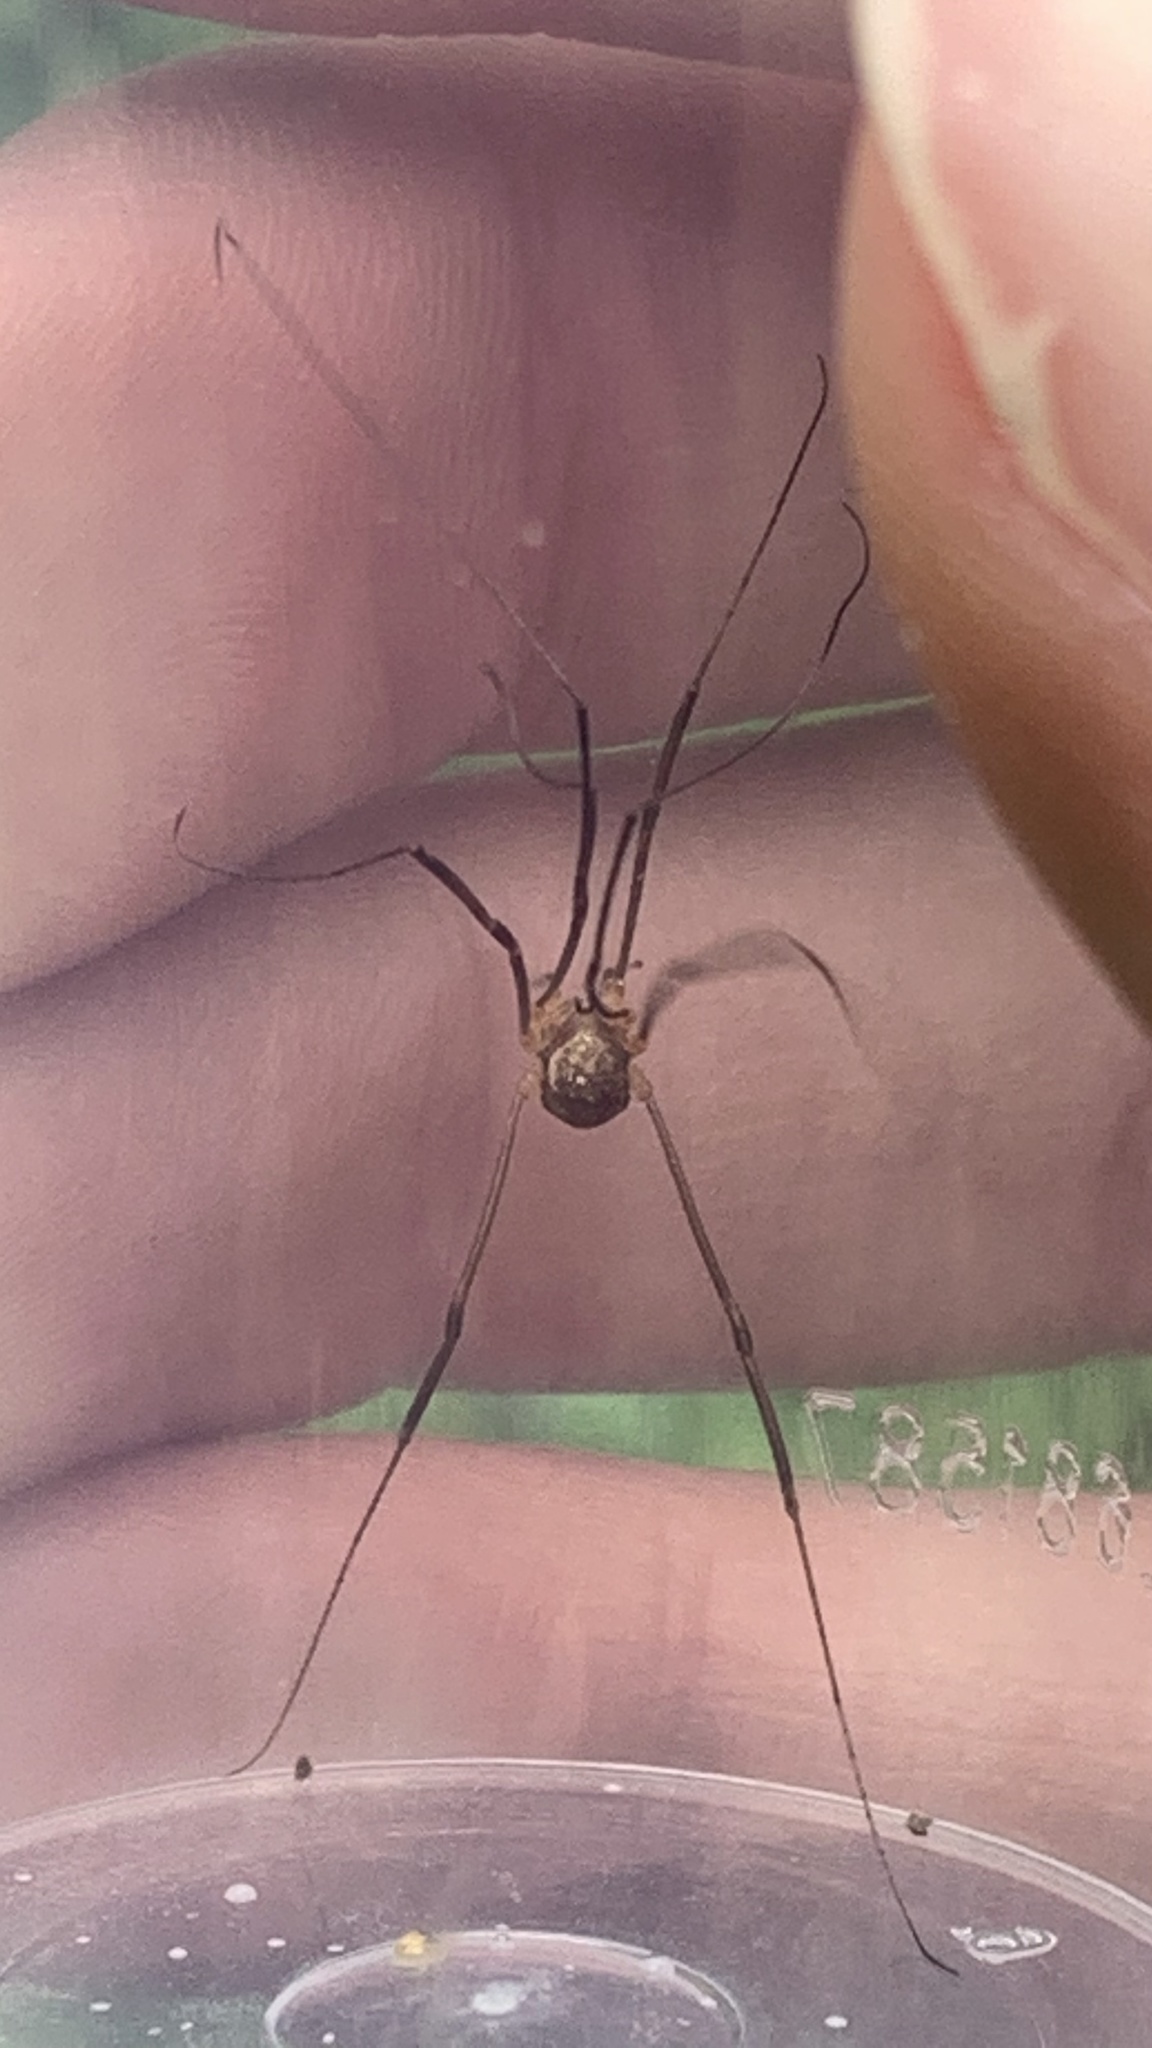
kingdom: Animalia
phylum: Arthropoda
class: Arachnida
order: Opiliones
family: Sclerosomatidae
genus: Nelima
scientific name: Nelima doriae
